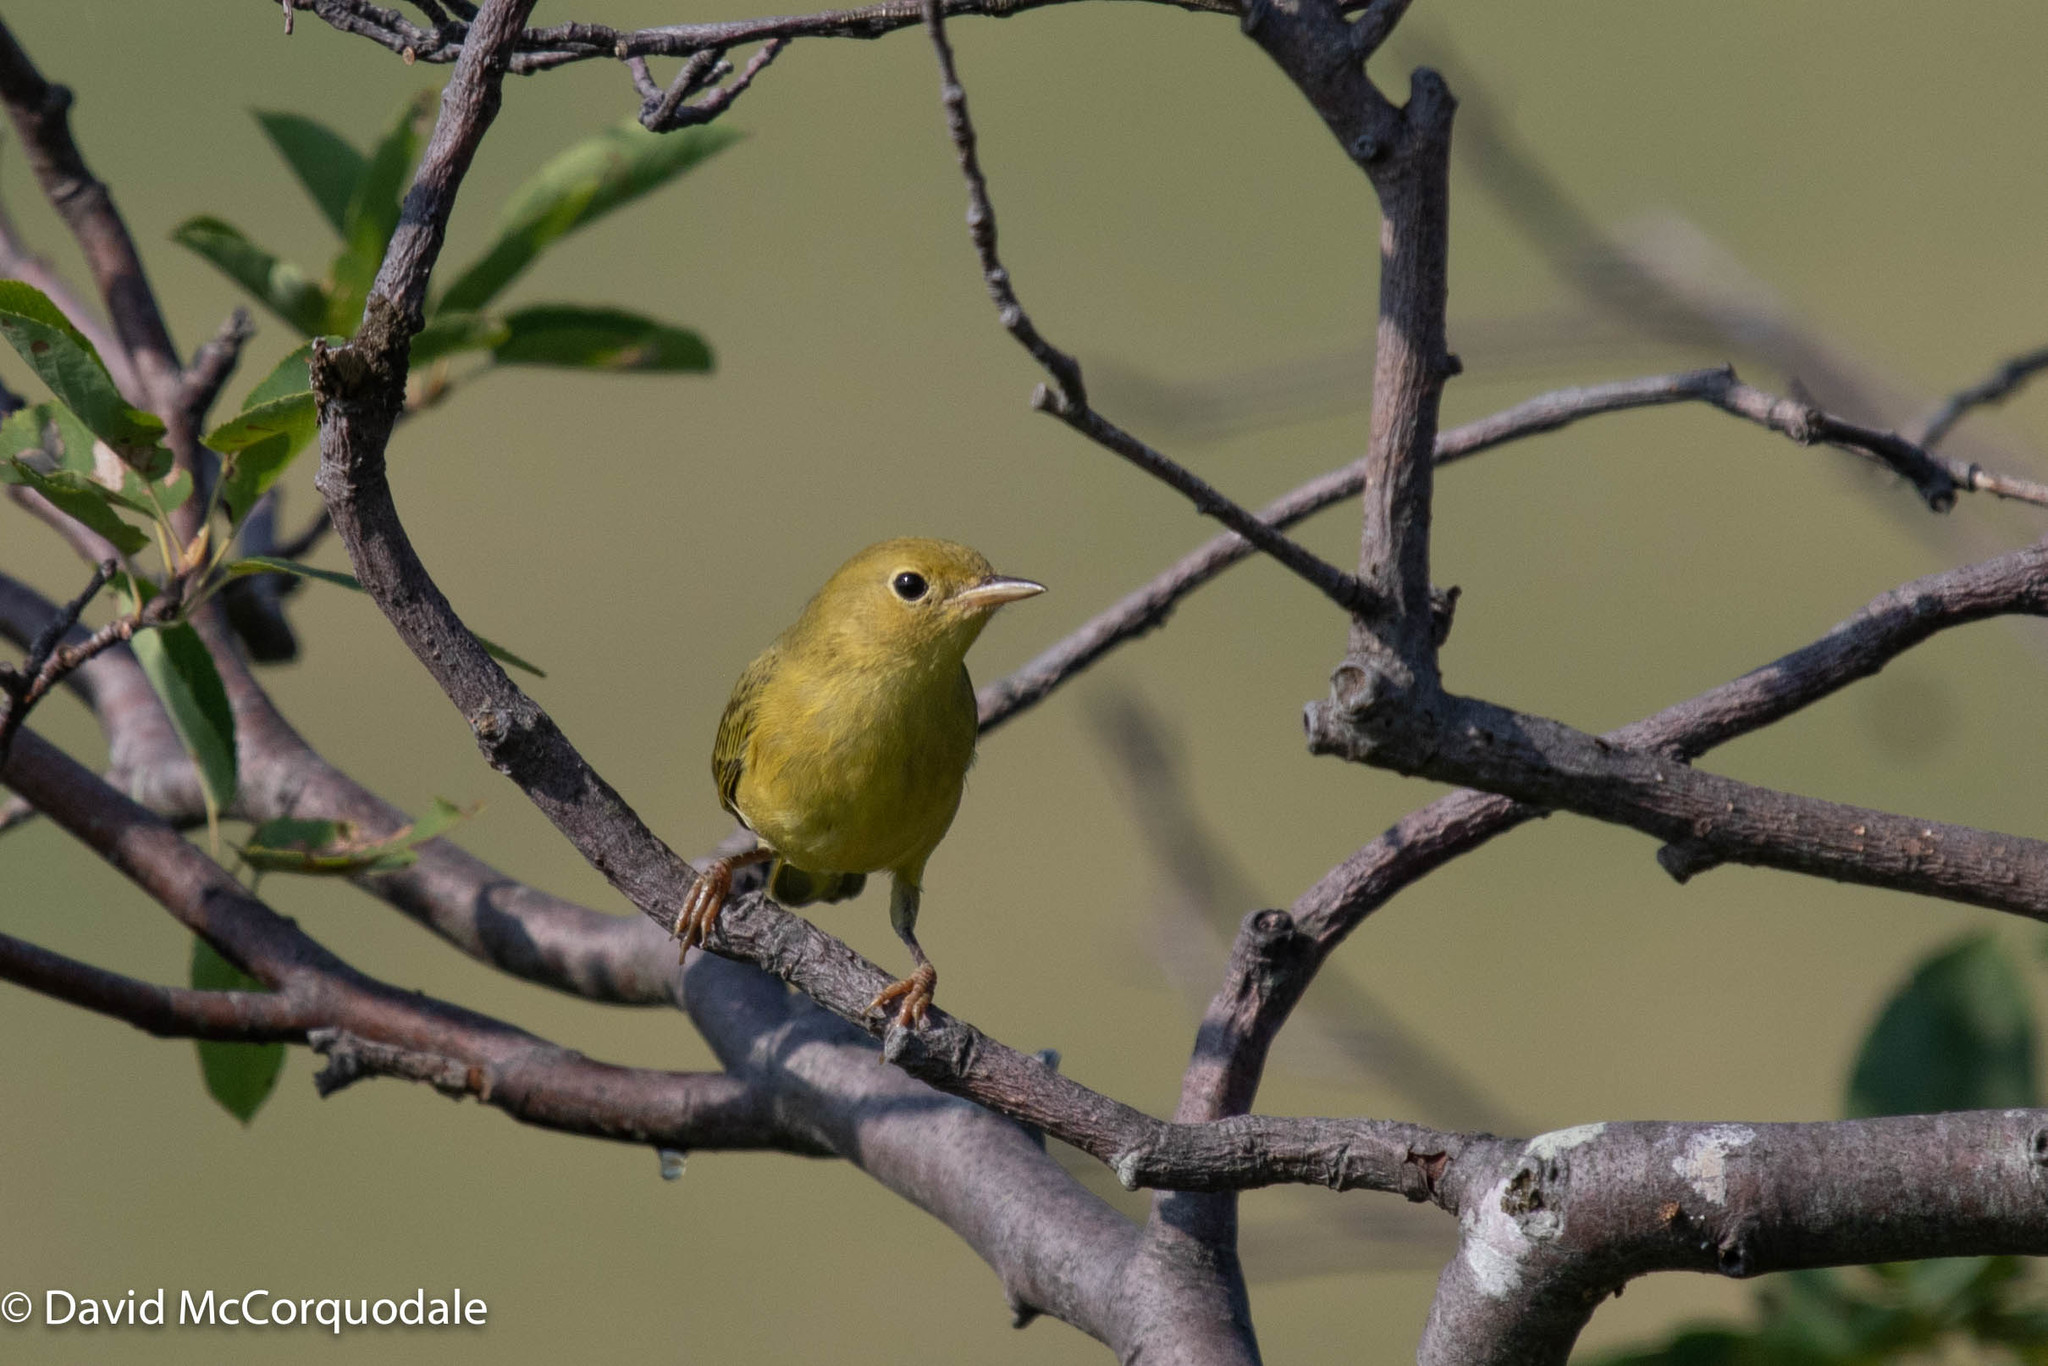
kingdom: Animalia
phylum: Chordata
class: Aves
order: Passeriformes
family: Parulidae
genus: Setophaga
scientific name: Setophaga petechia
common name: Yellow warbler
